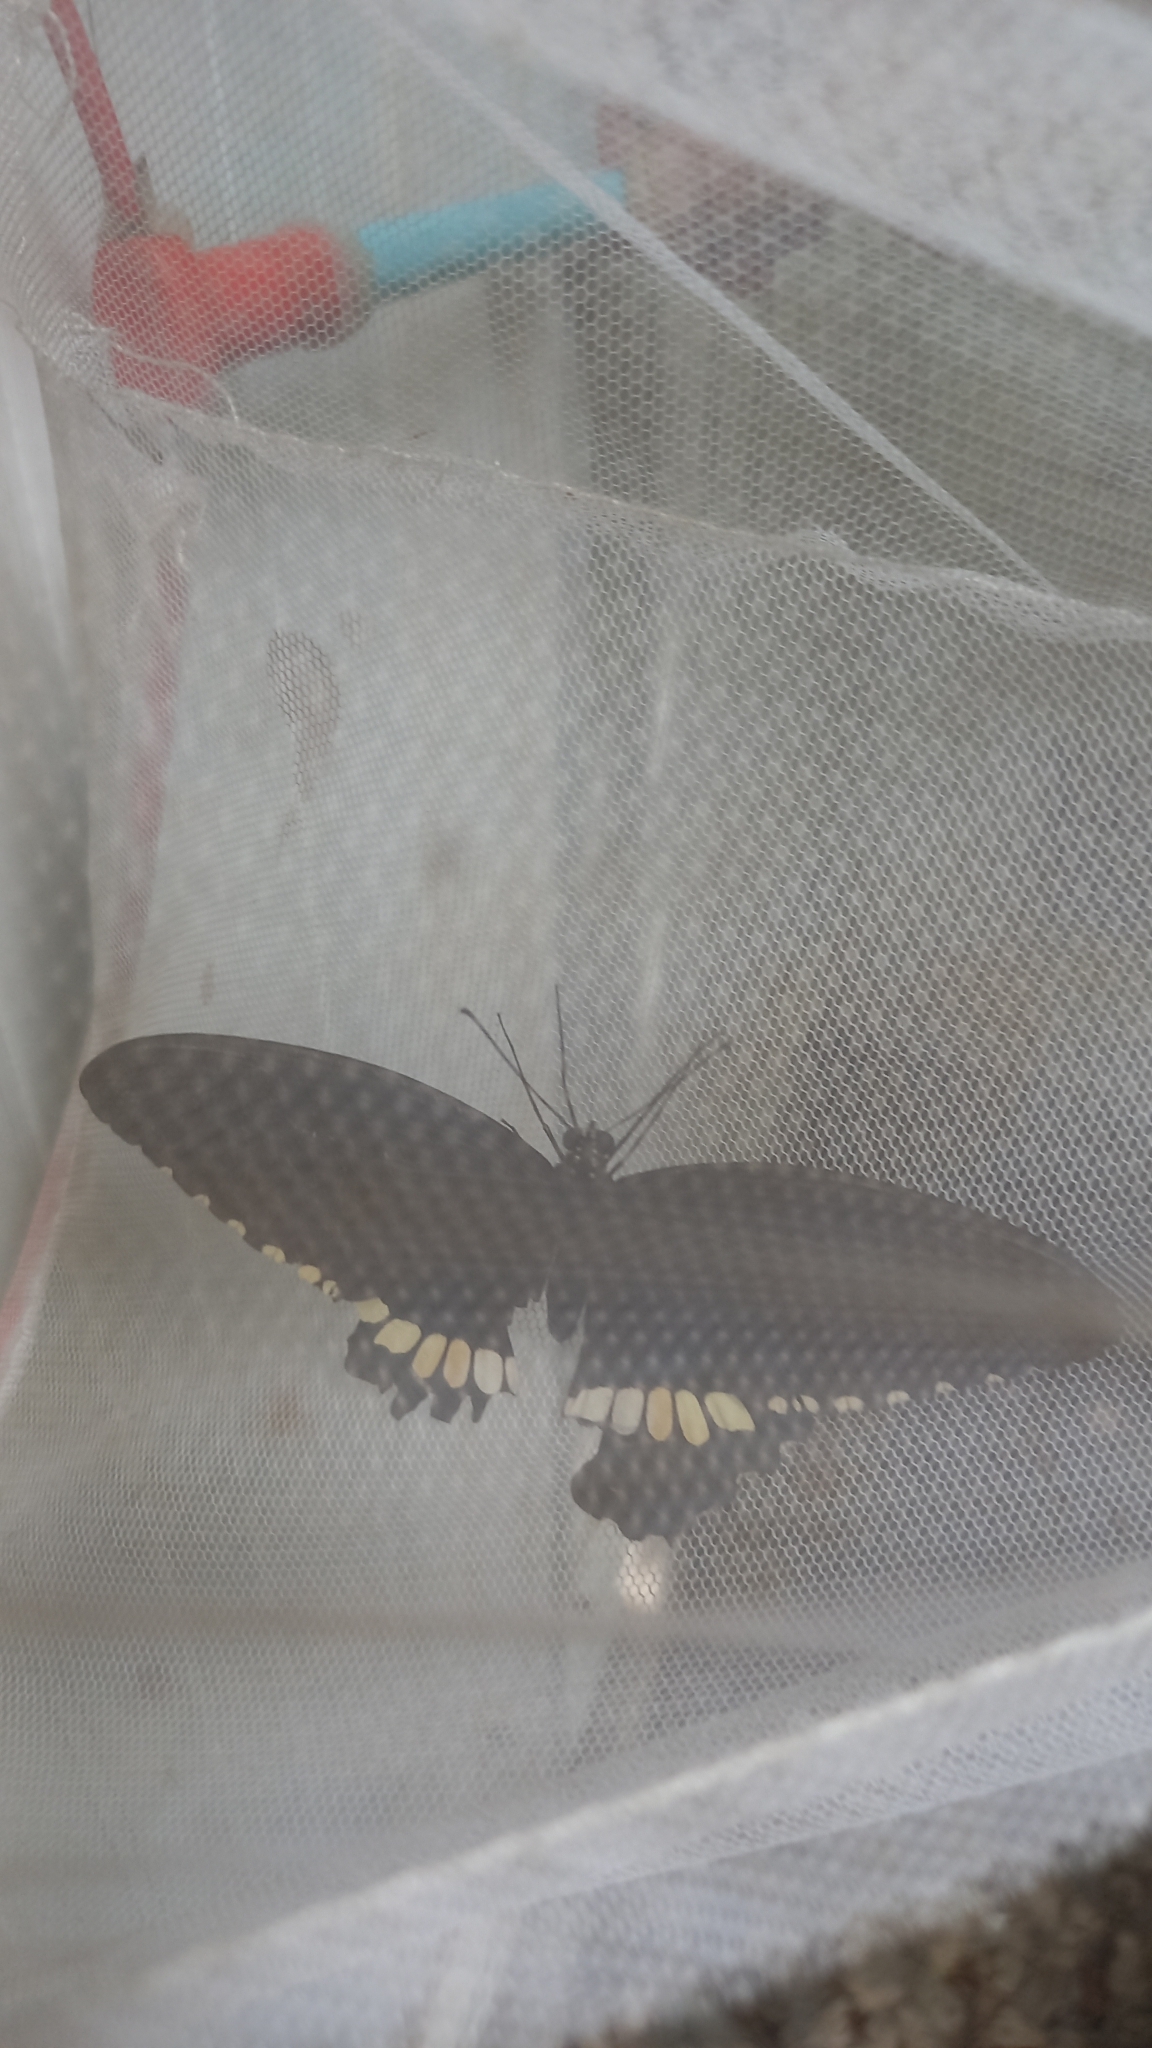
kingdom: Animalia
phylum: Arthropoda
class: Insecta
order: Lepidoptera
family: Papilionidae
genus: Papilio
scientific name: Papilio polytes
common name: Common mormon
